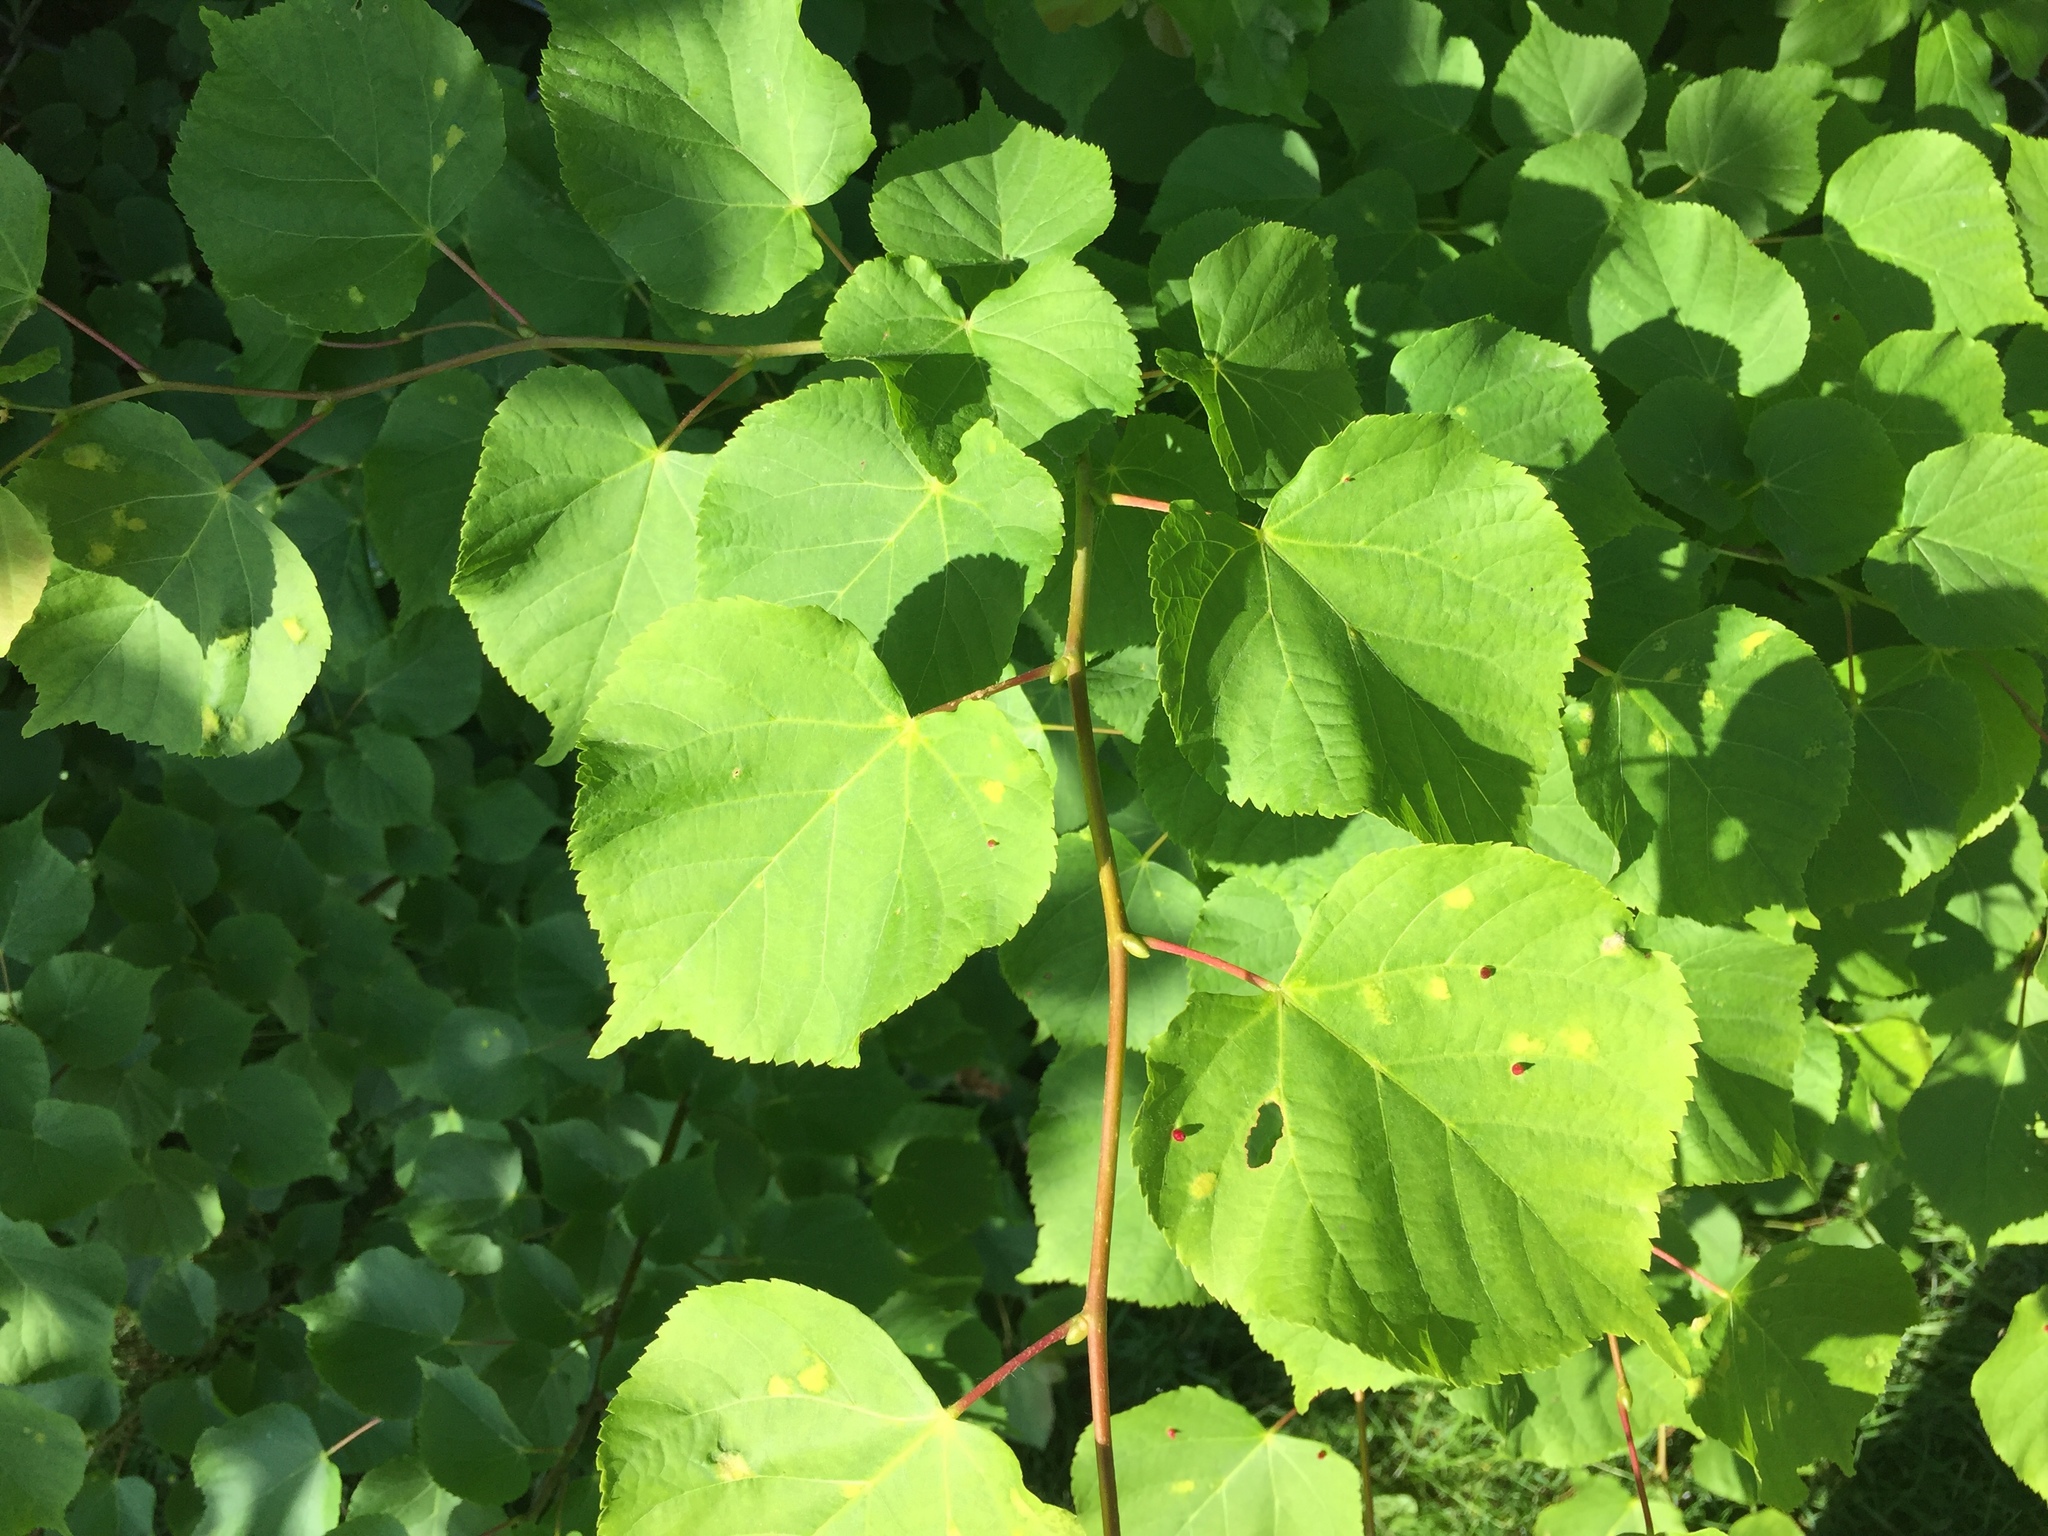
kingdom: Plantae
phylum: Tracheophyta
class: Magnoliopsida
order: Malvales
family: Malvaceae
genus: Tilia
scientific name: Tilia cordata
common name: Small-leaved lime
